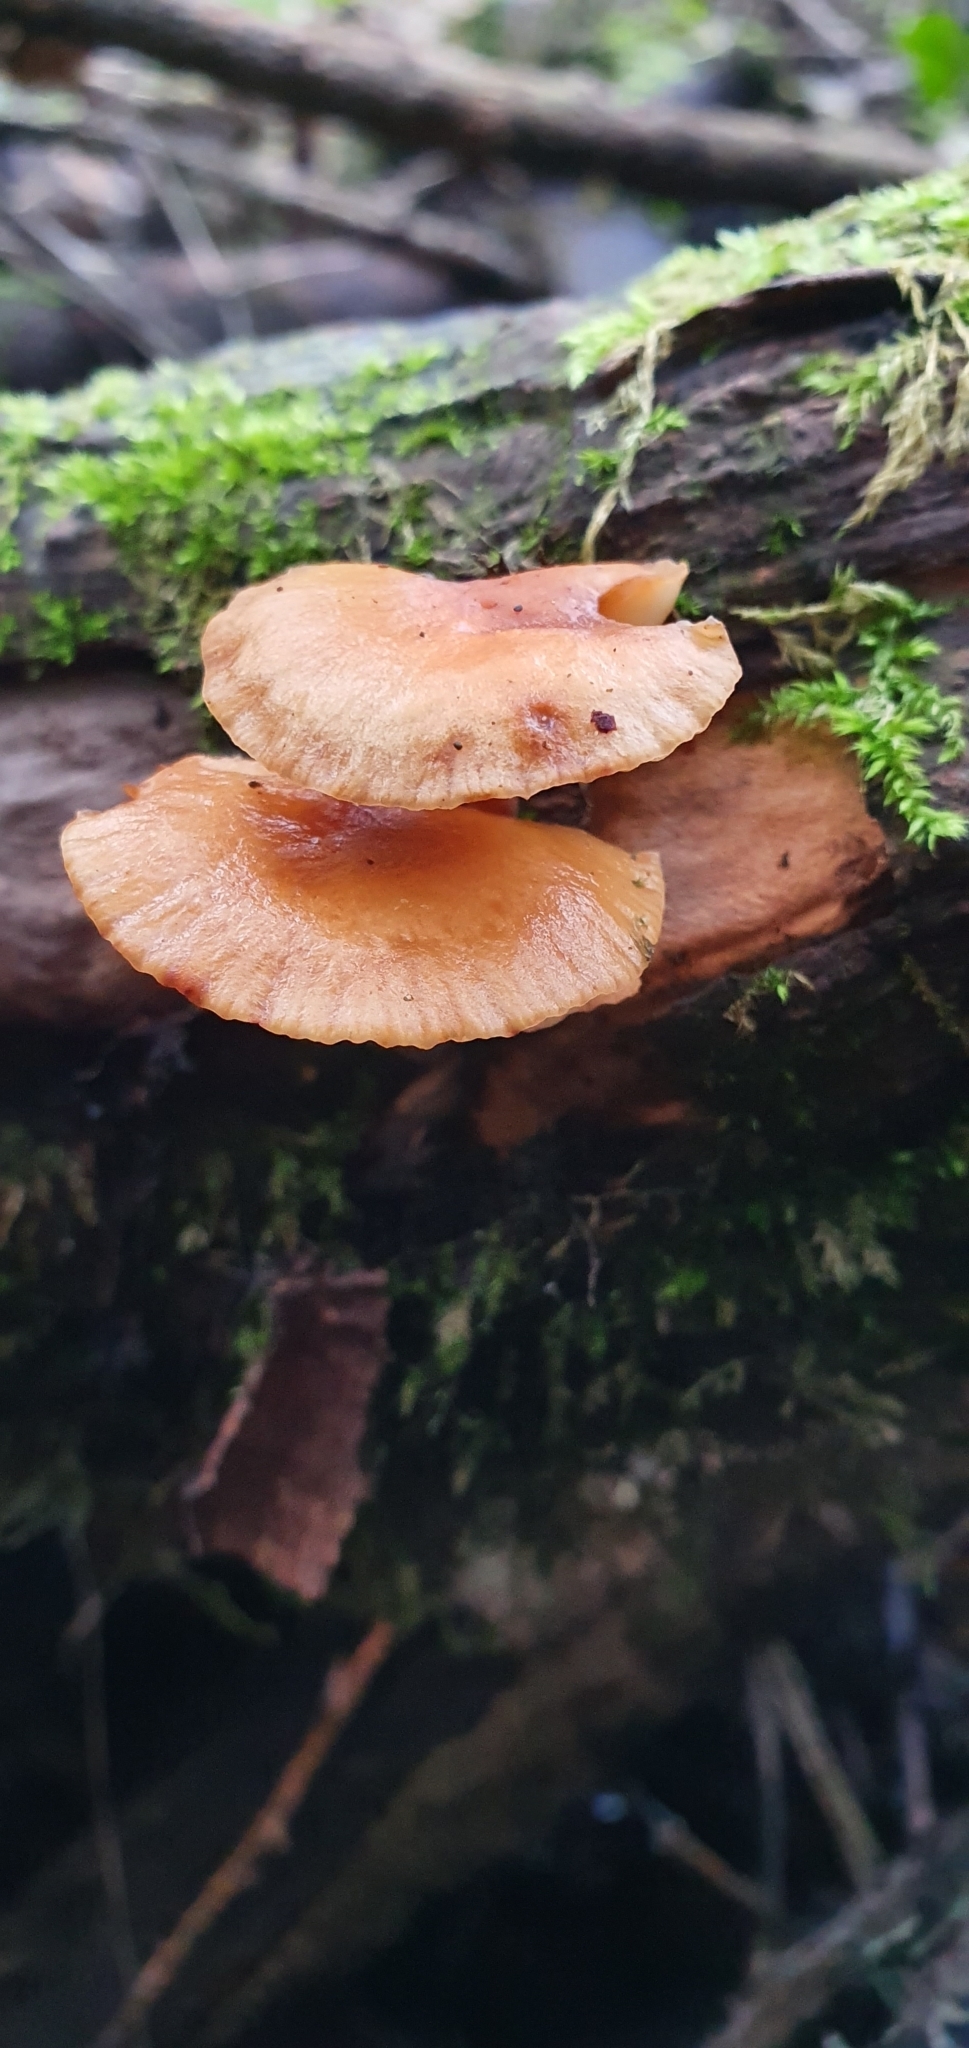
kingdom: Fungi
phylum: Basidiomycota
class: Agaricomycetes
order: Agaricales
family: Physalacriaceae
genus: Flammulina
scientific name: Flammulina
